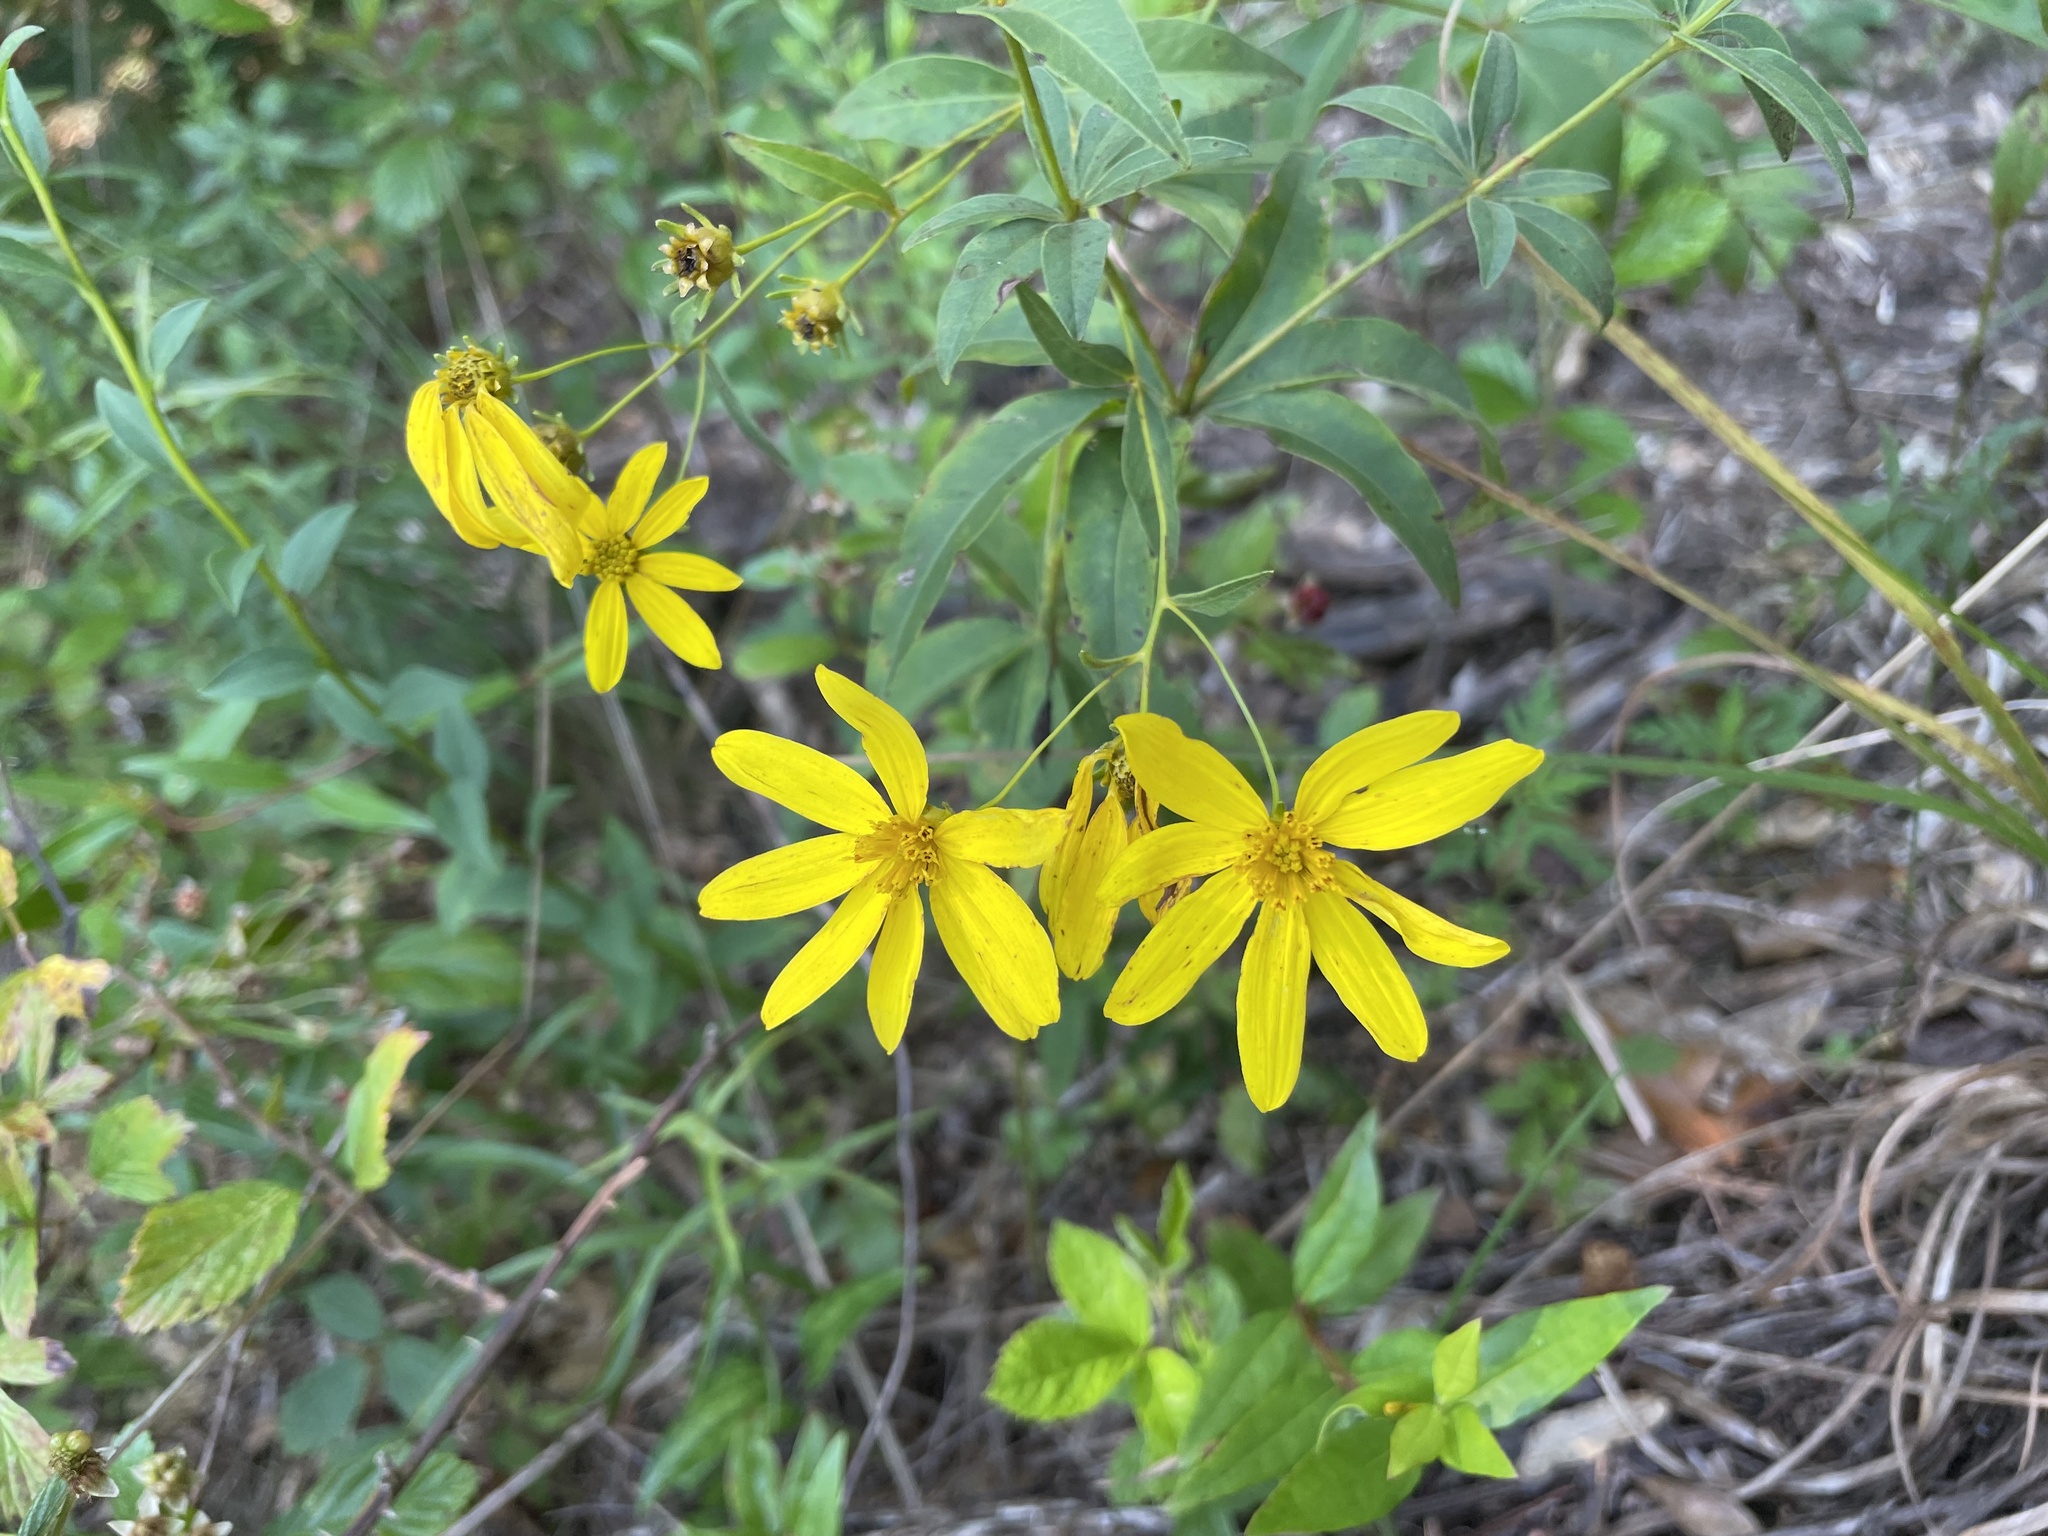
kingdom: Plantae
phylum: Tracheophyta
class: Magnoliopsida
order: Asterales
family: Asteraceae
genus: Coreopsis
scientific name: Coreopsis major
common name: Forest tickseed
